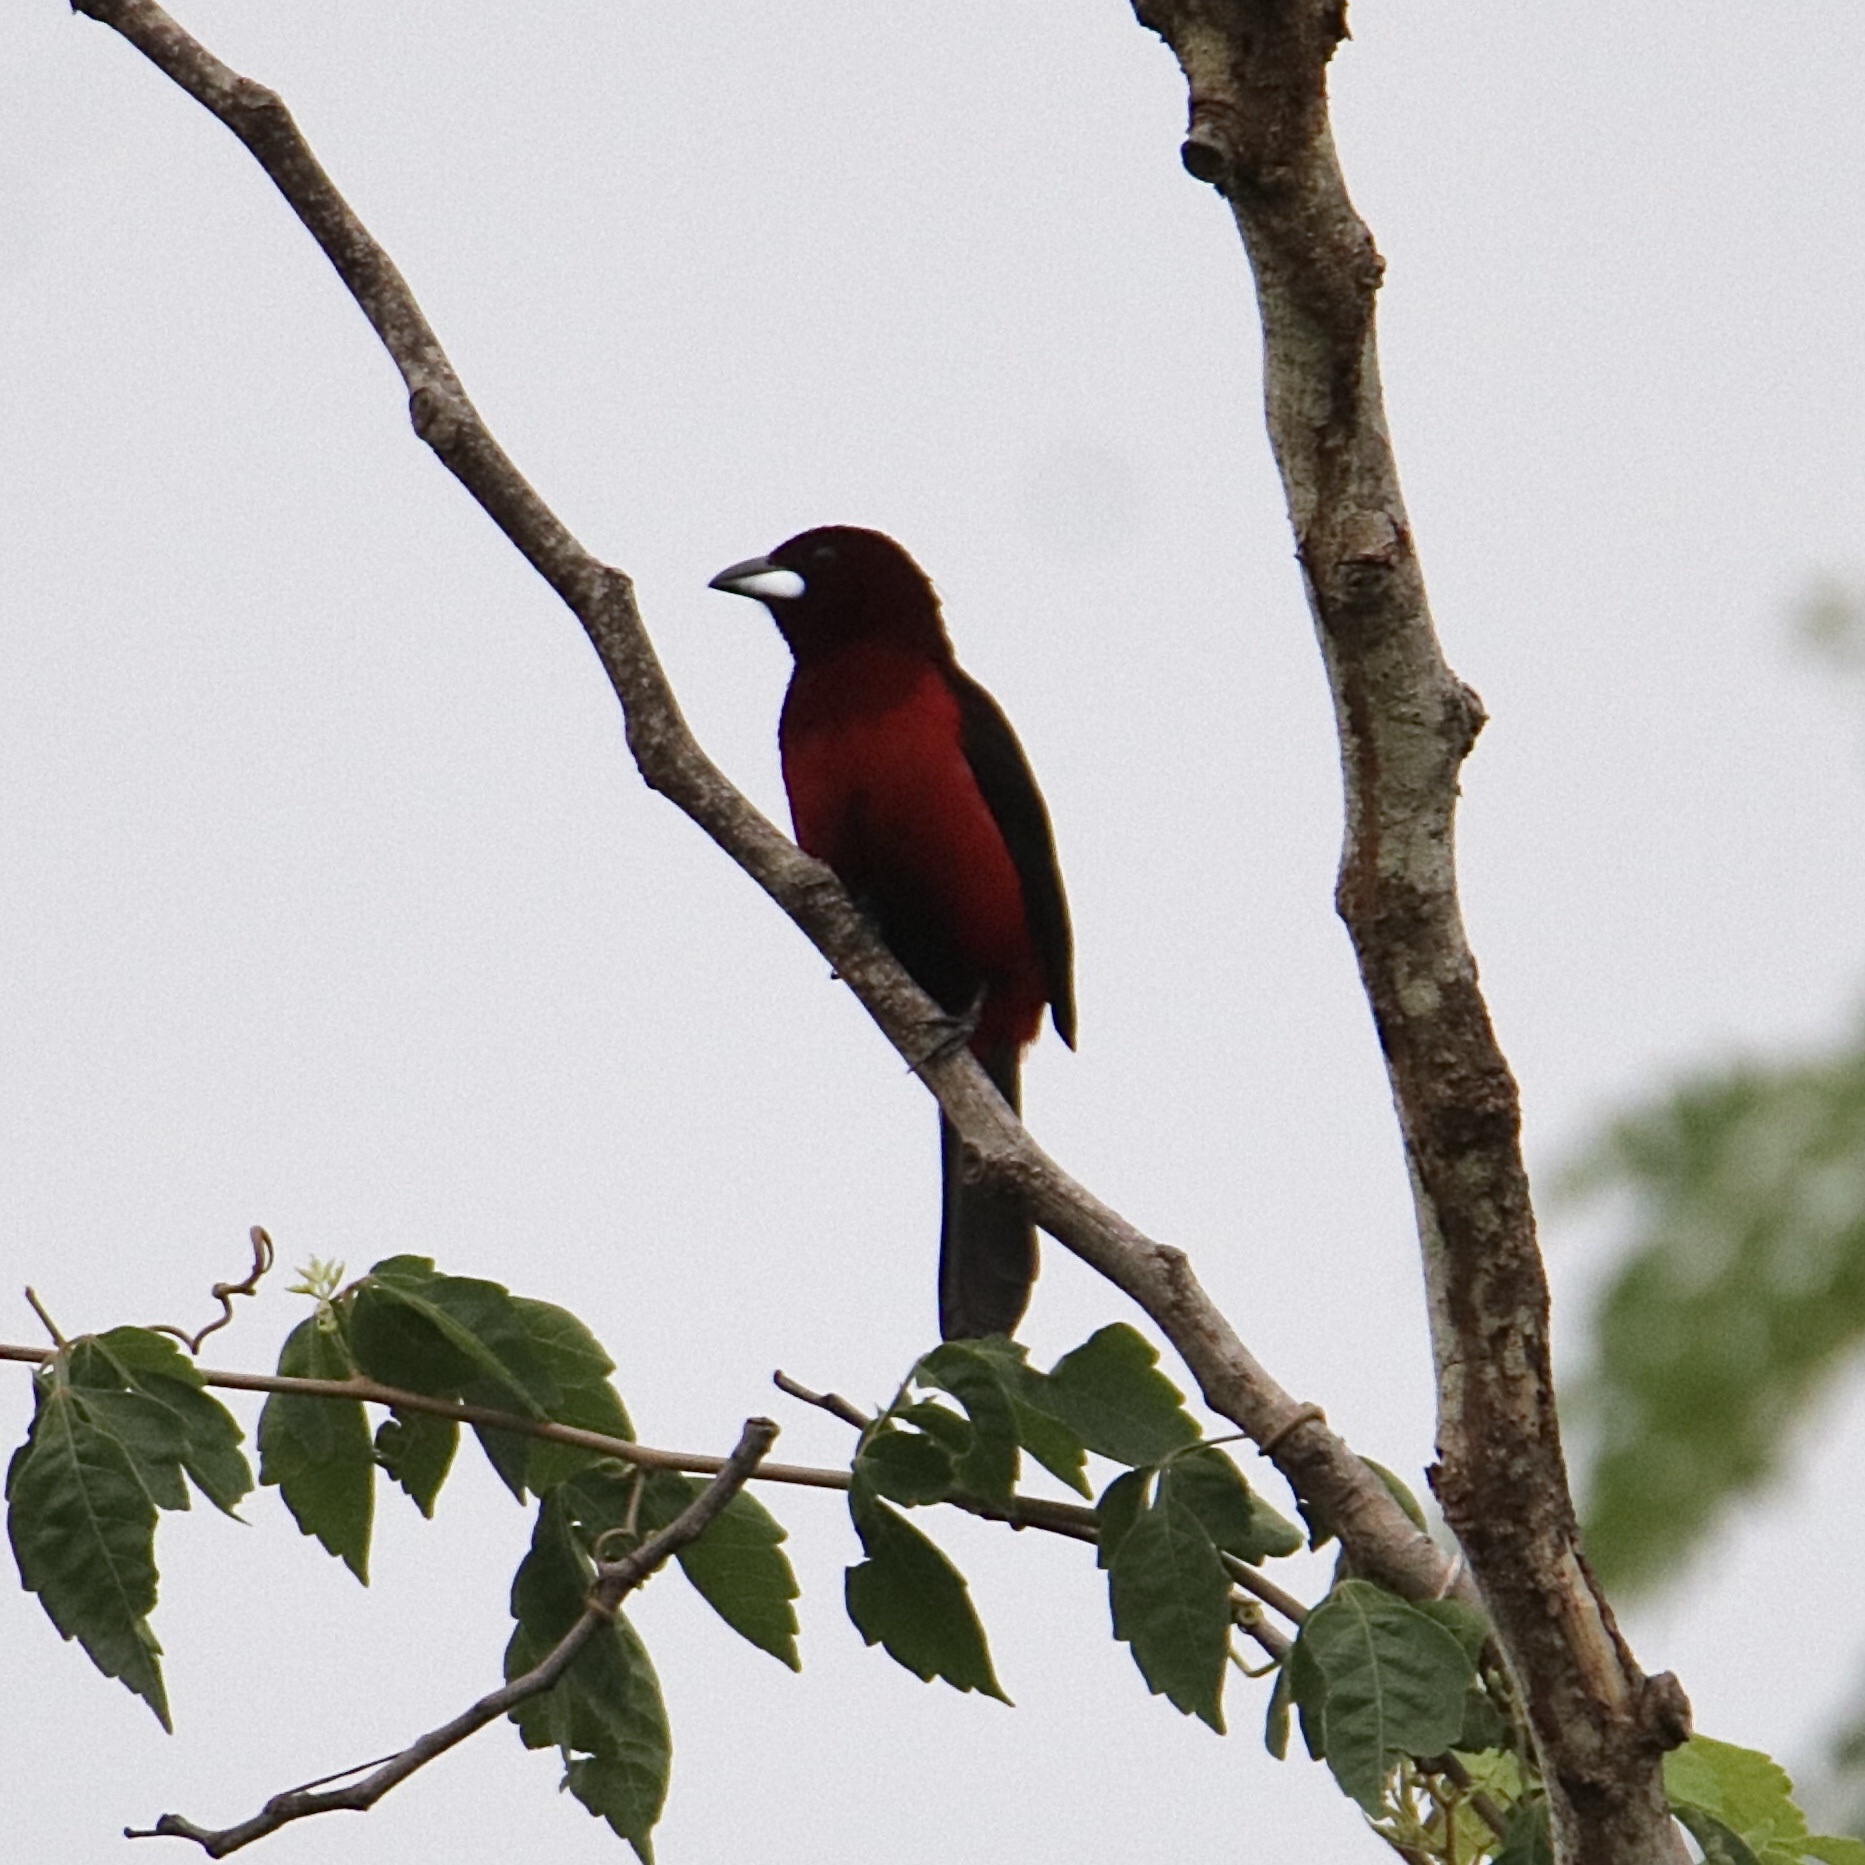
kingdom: Animalia
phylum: Chordata
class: Aves
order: Passeriformes
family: Thraupidae
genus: Ramphocelus
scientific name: Ramphocelus dimidiatus
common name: Crimson-backed tanager
